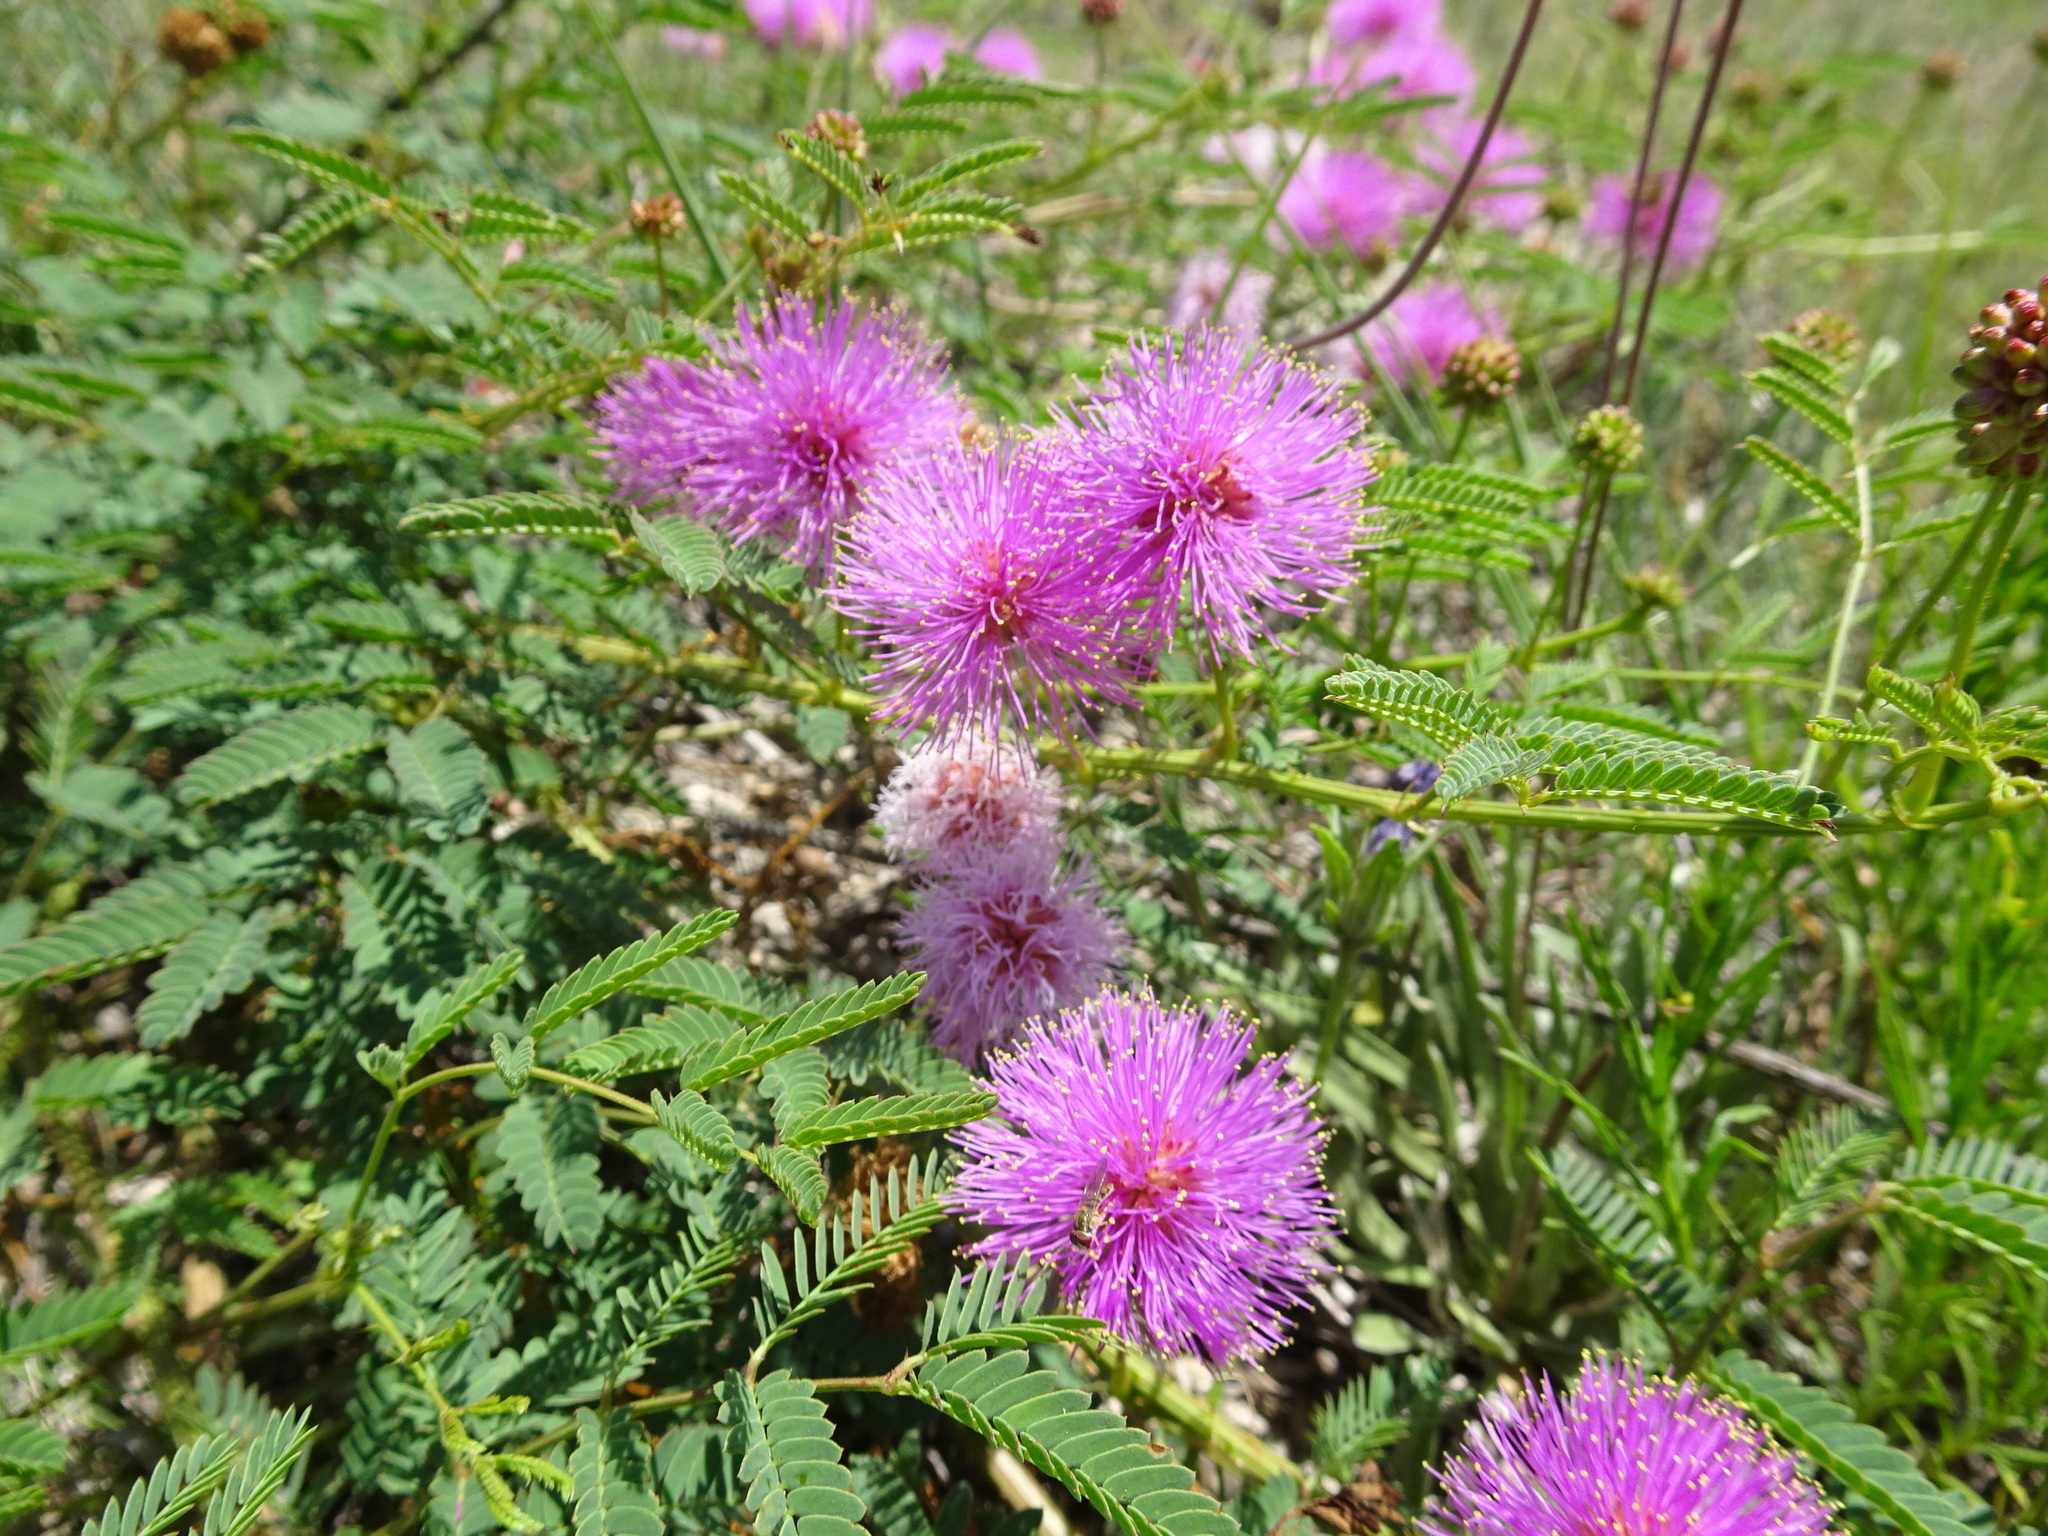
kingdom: Plantae
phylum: Tracheophyta
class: Magnoliopsida
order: Fabales
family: Fabaceae
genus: Mimosa
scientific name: Mimosa quadrivalvis
